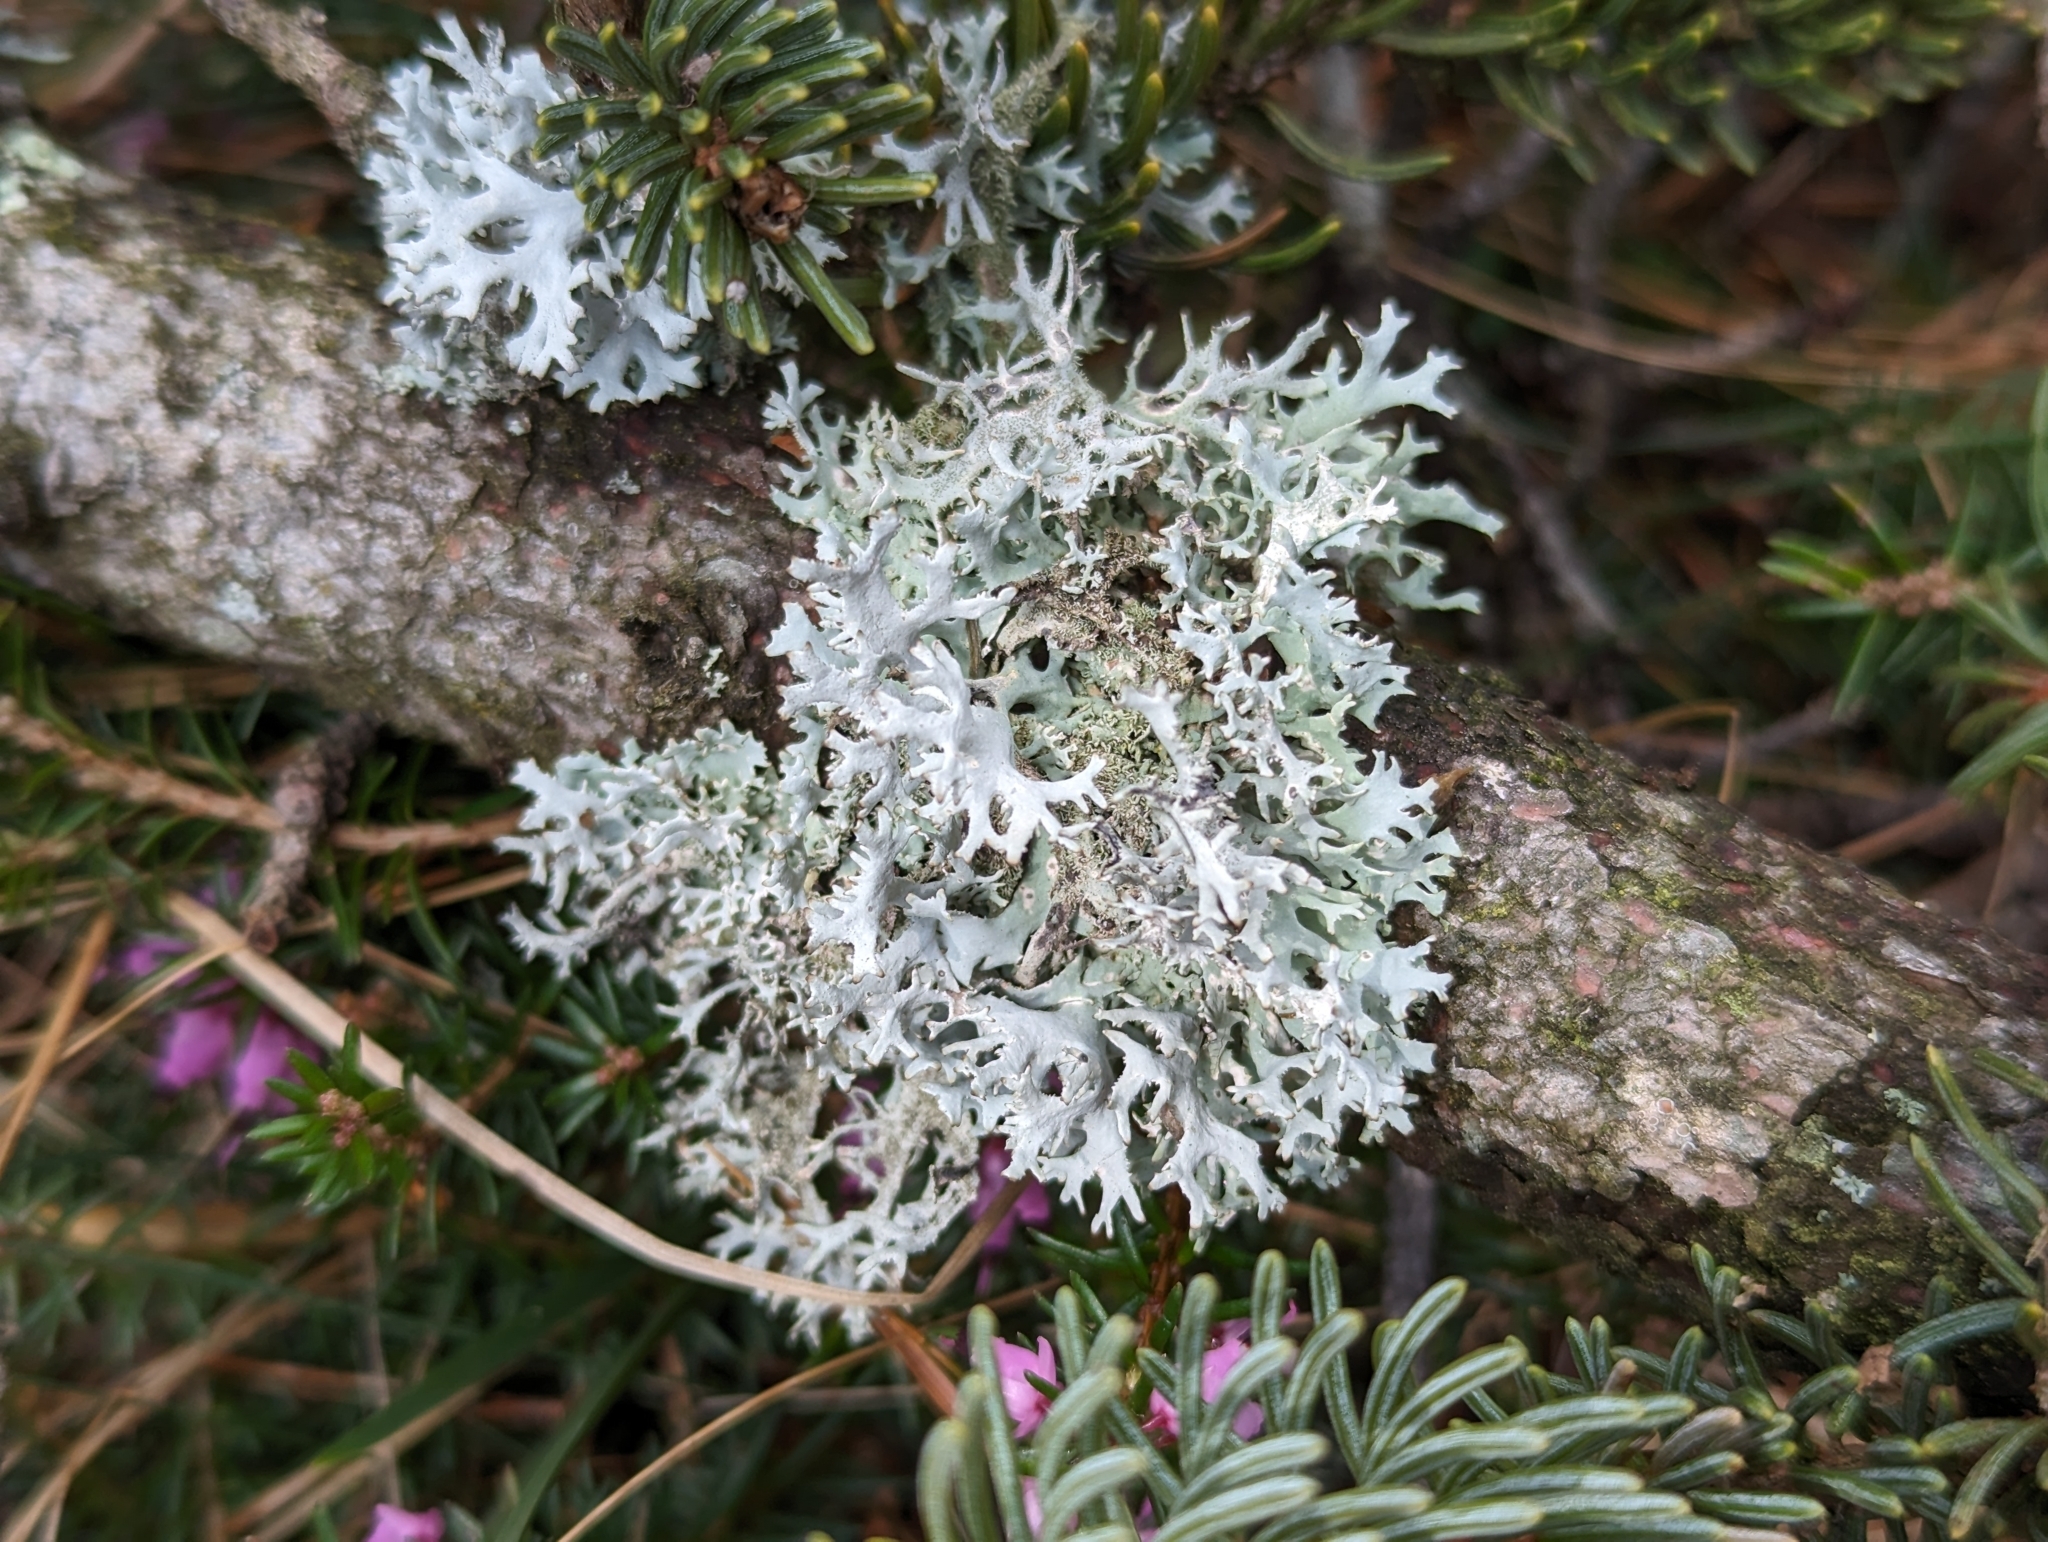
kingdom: Fungi
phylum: Ascomycota
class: Lecanoromycetes
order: Lecanorales
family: Parmeliaceae
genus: Pseudevernia
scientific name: Pseudevernia furfuracea
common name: Tree moss
